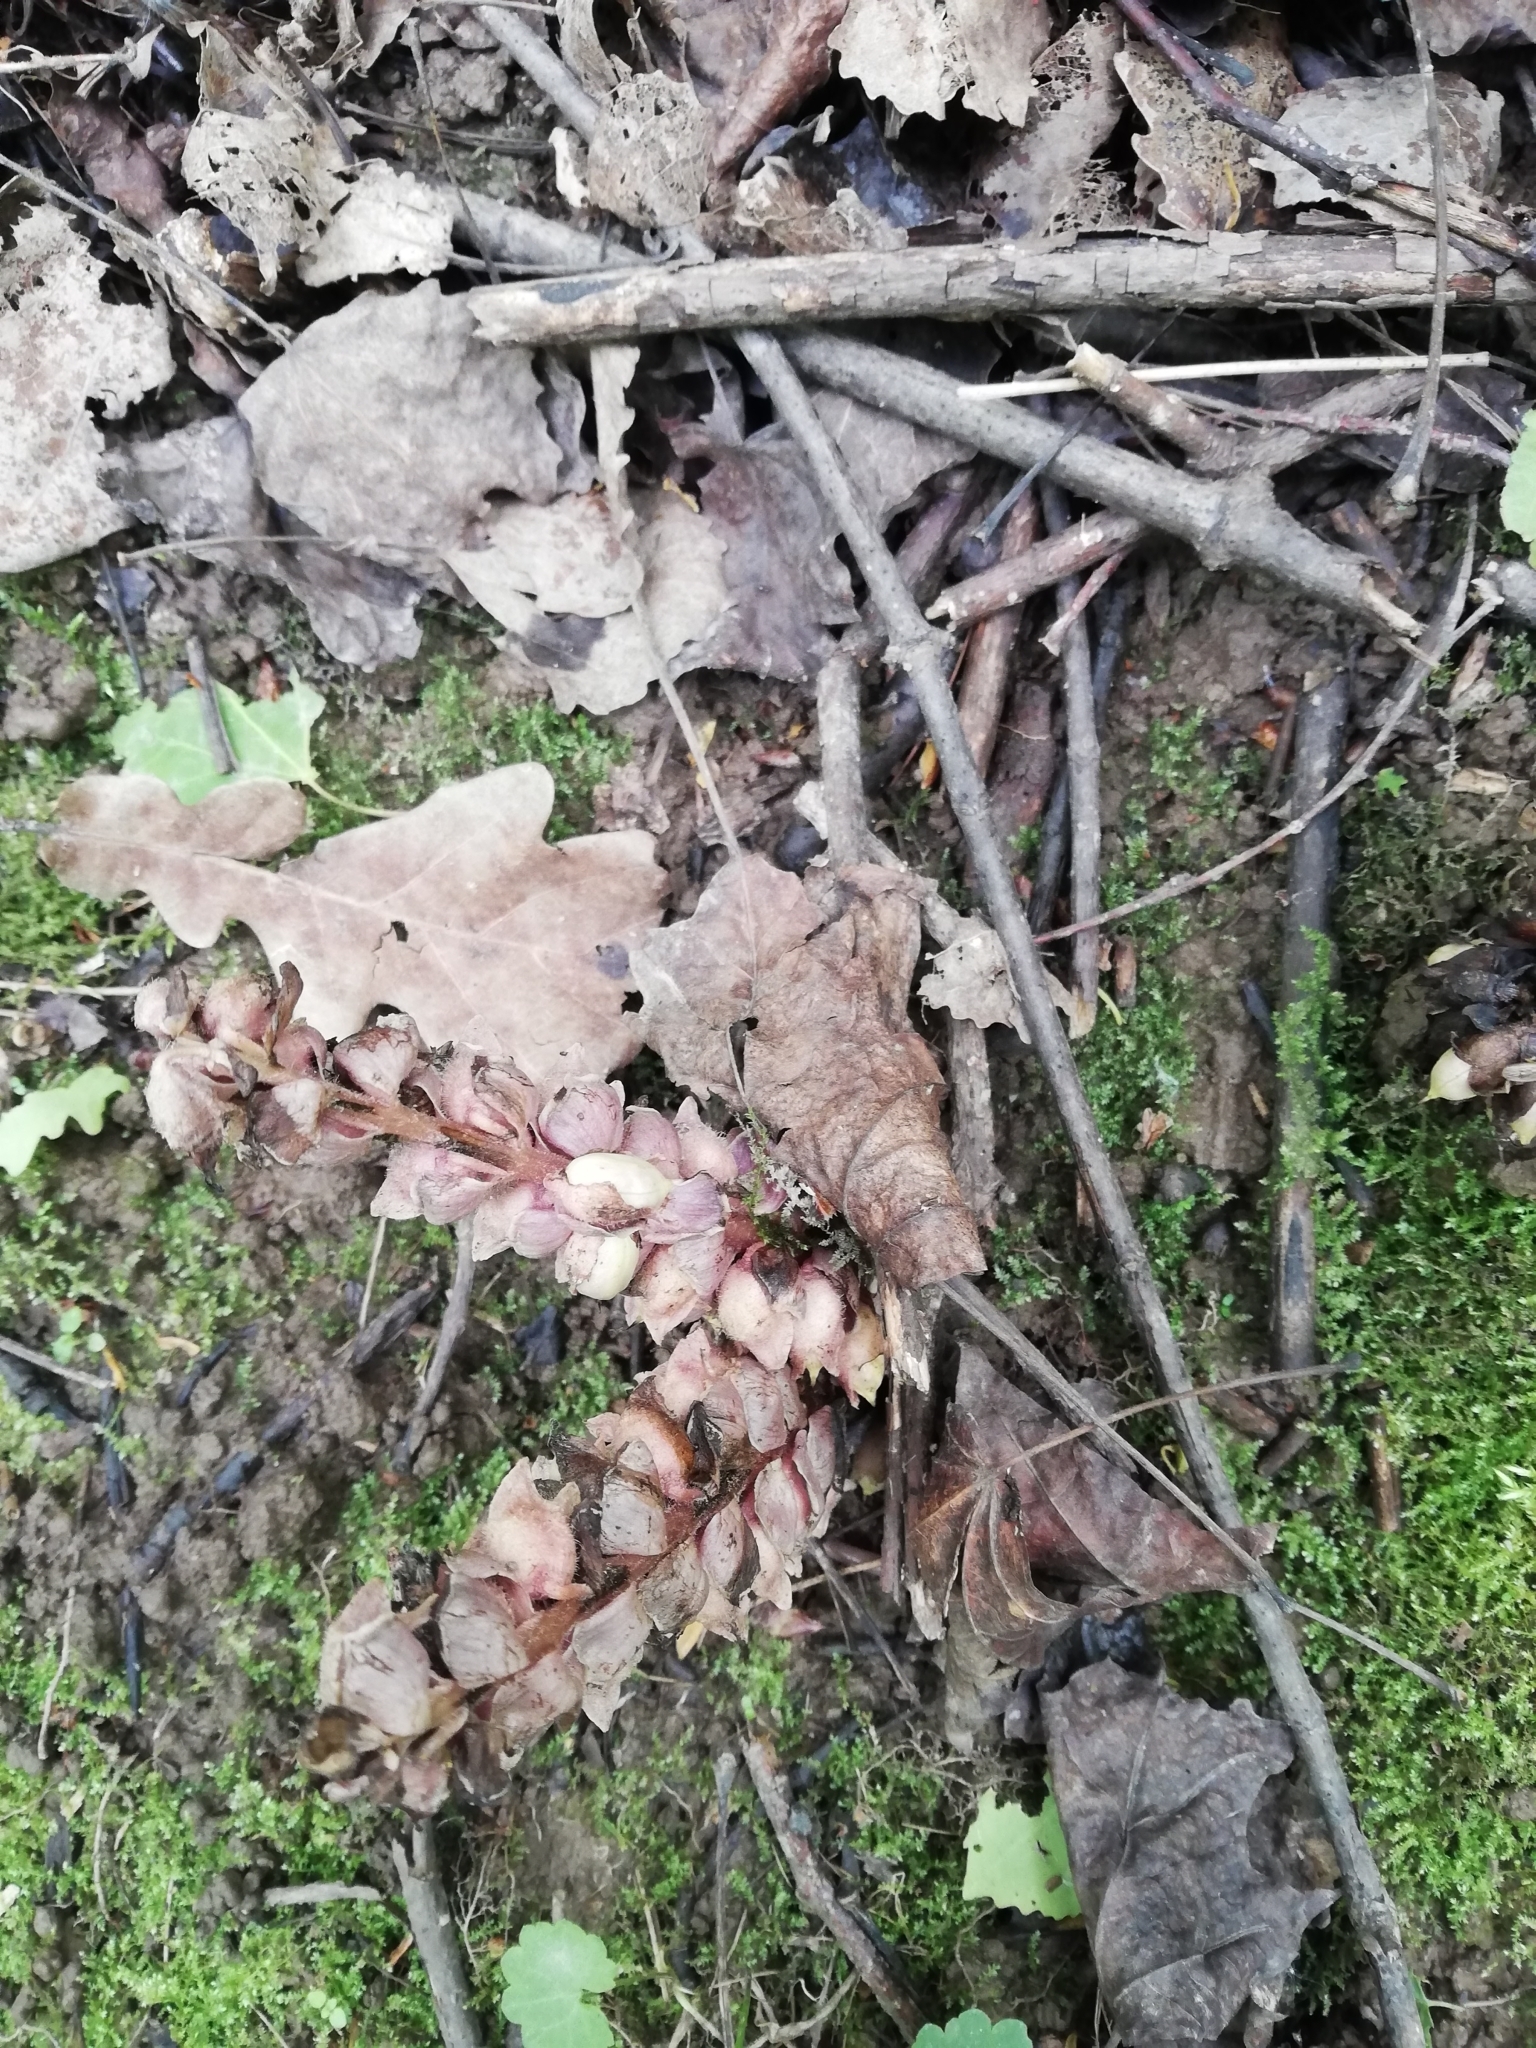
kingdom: Plantae
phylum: Tracheophyta
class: Magnoliopsida
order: Lamiales
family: Orobanchaceae
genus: Lathraea
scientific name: Lathraea squamaria
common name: Toothwort
